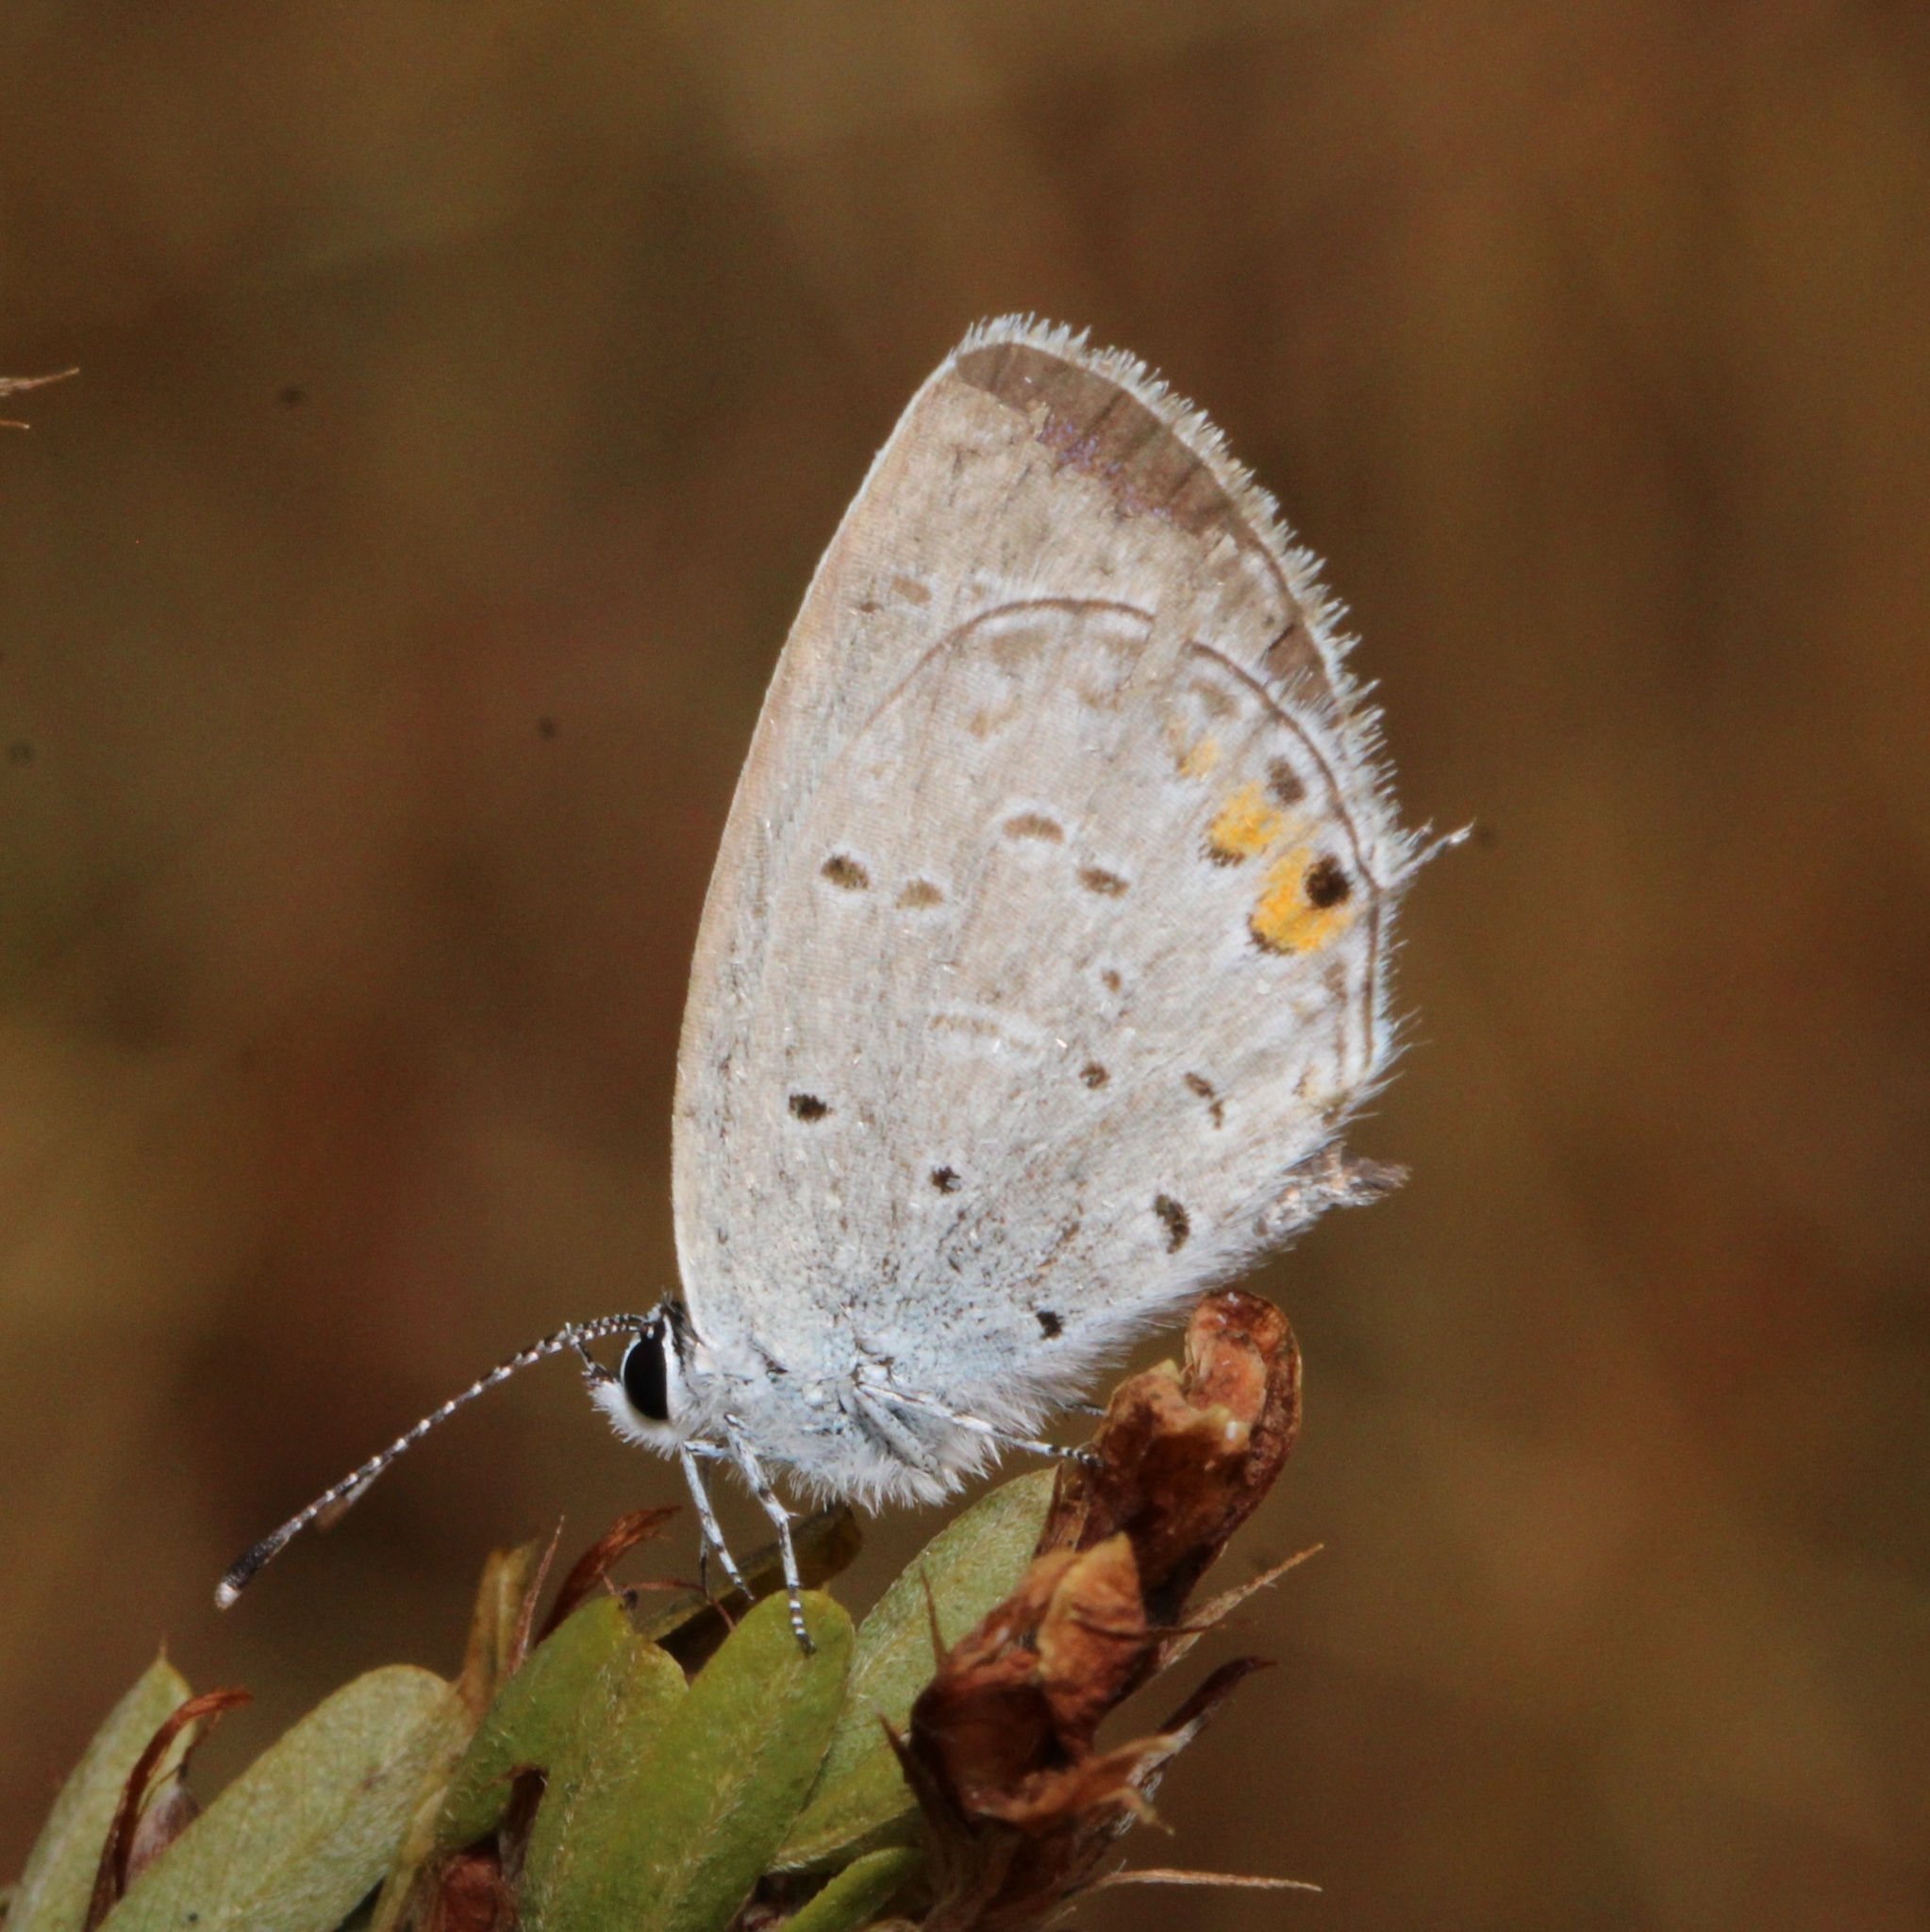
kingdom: Animalia
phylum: Arthropoda
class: Insecta
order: Lepidoptera
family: Lycaenidae
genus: Elkalyce
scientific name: Elkalyce comyntas
